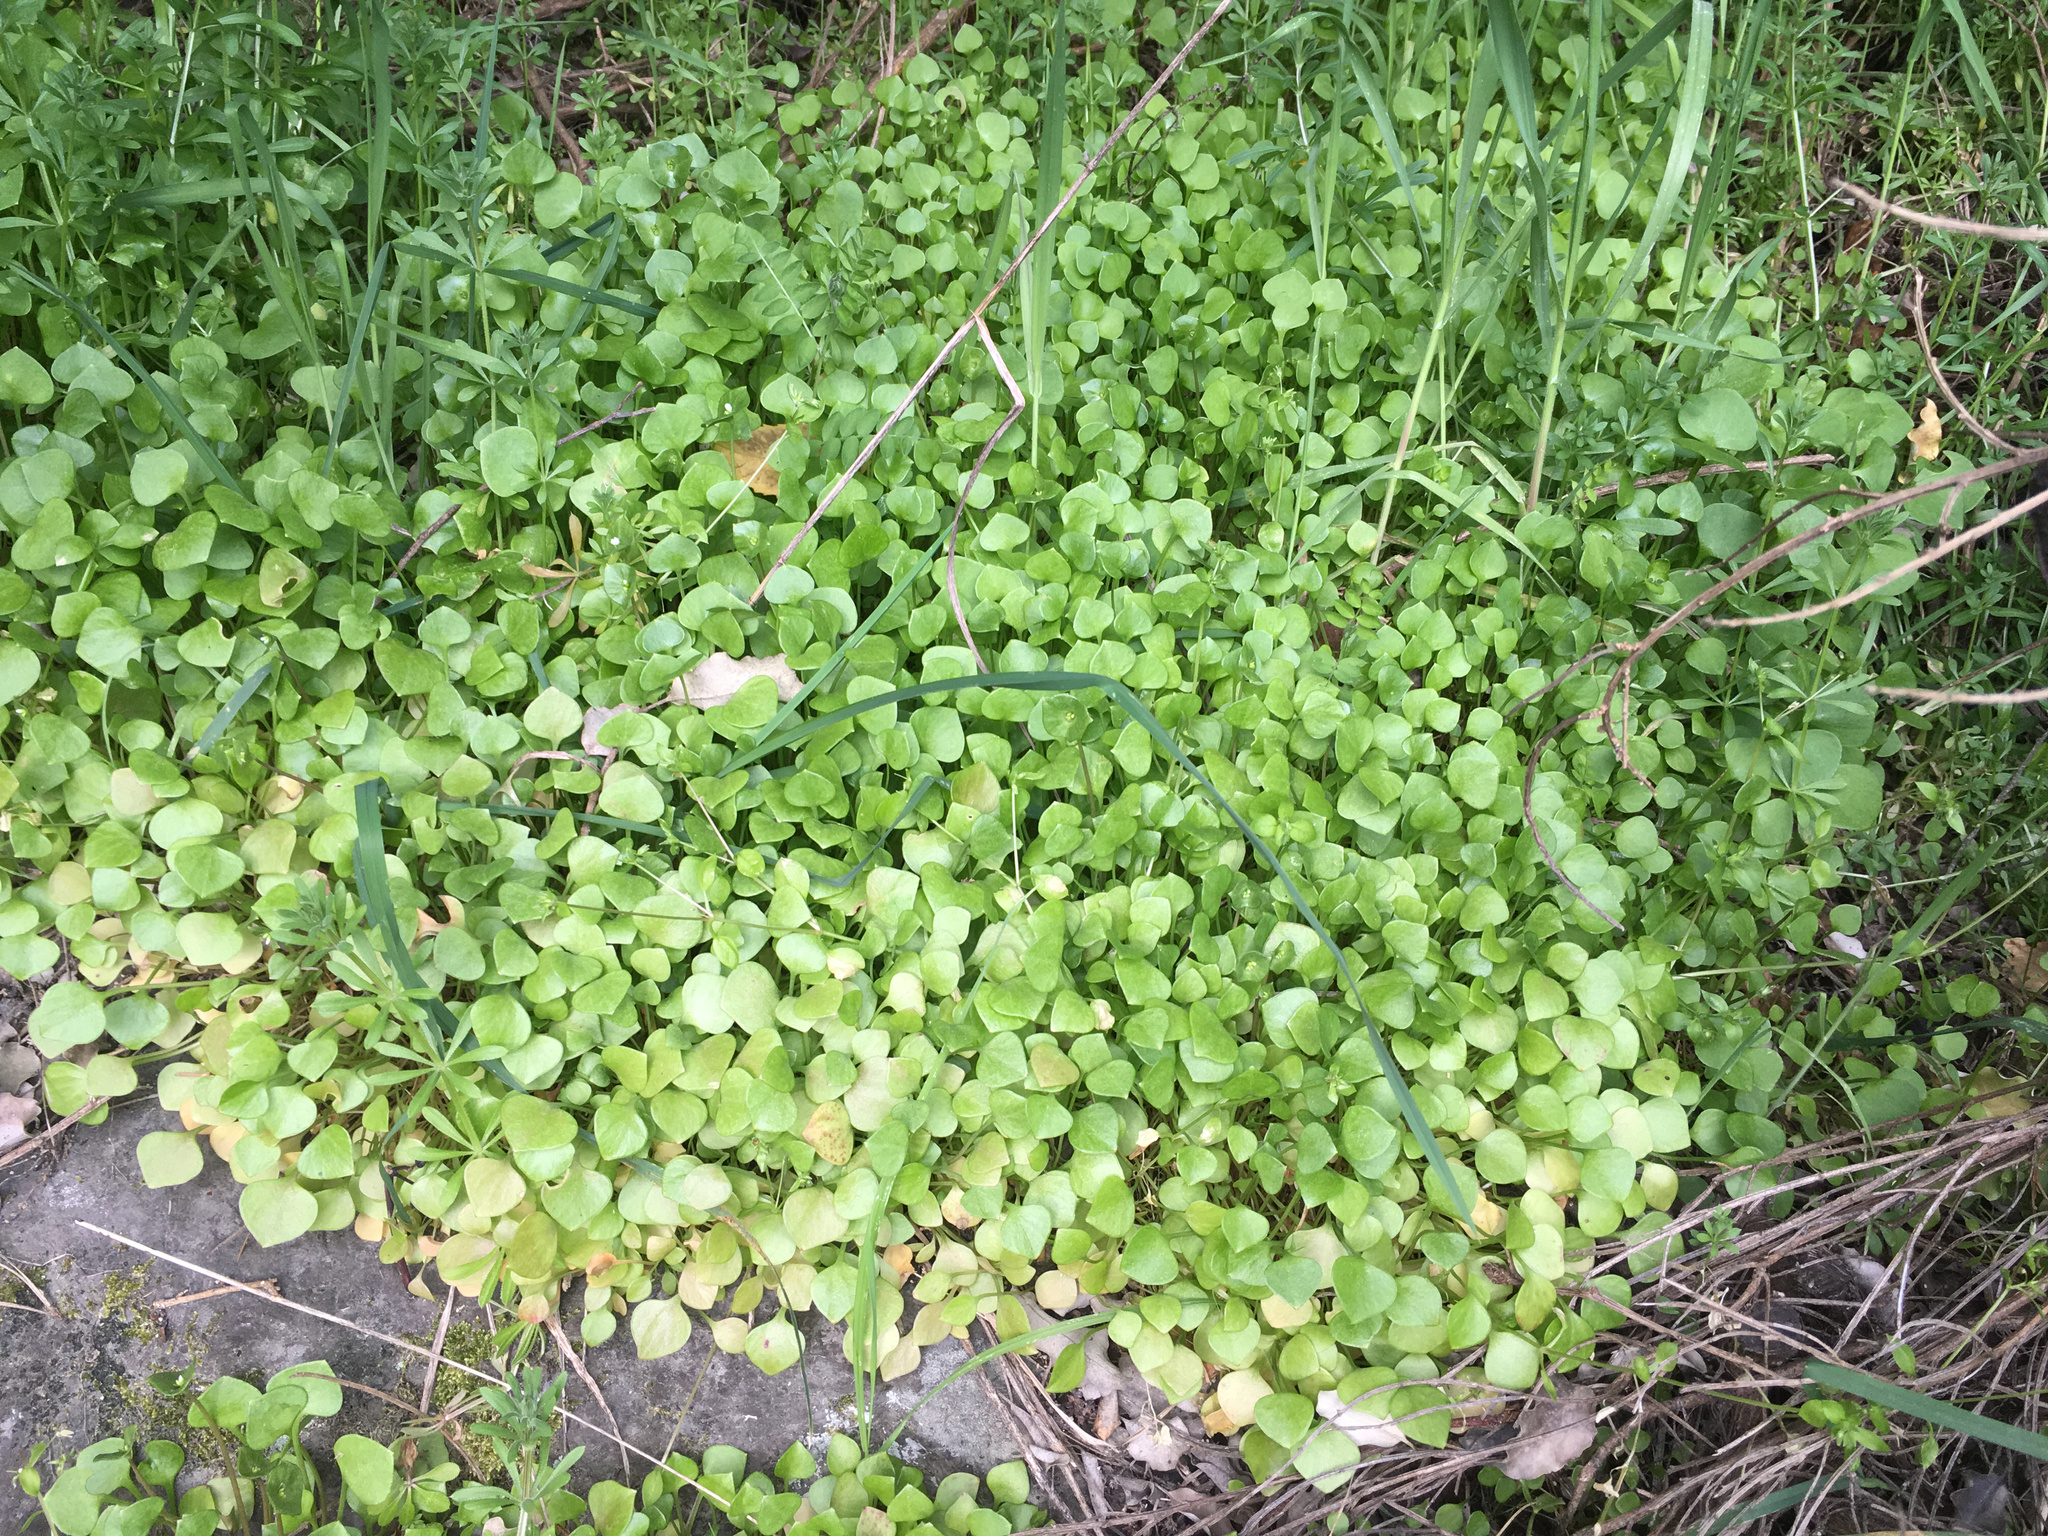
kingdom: Plantae
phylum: Tracheophyta
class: Magnoliopsida
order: Caryophyllales
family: Montiaceae
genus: Claytonia
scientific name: Claytonia perfoliata
